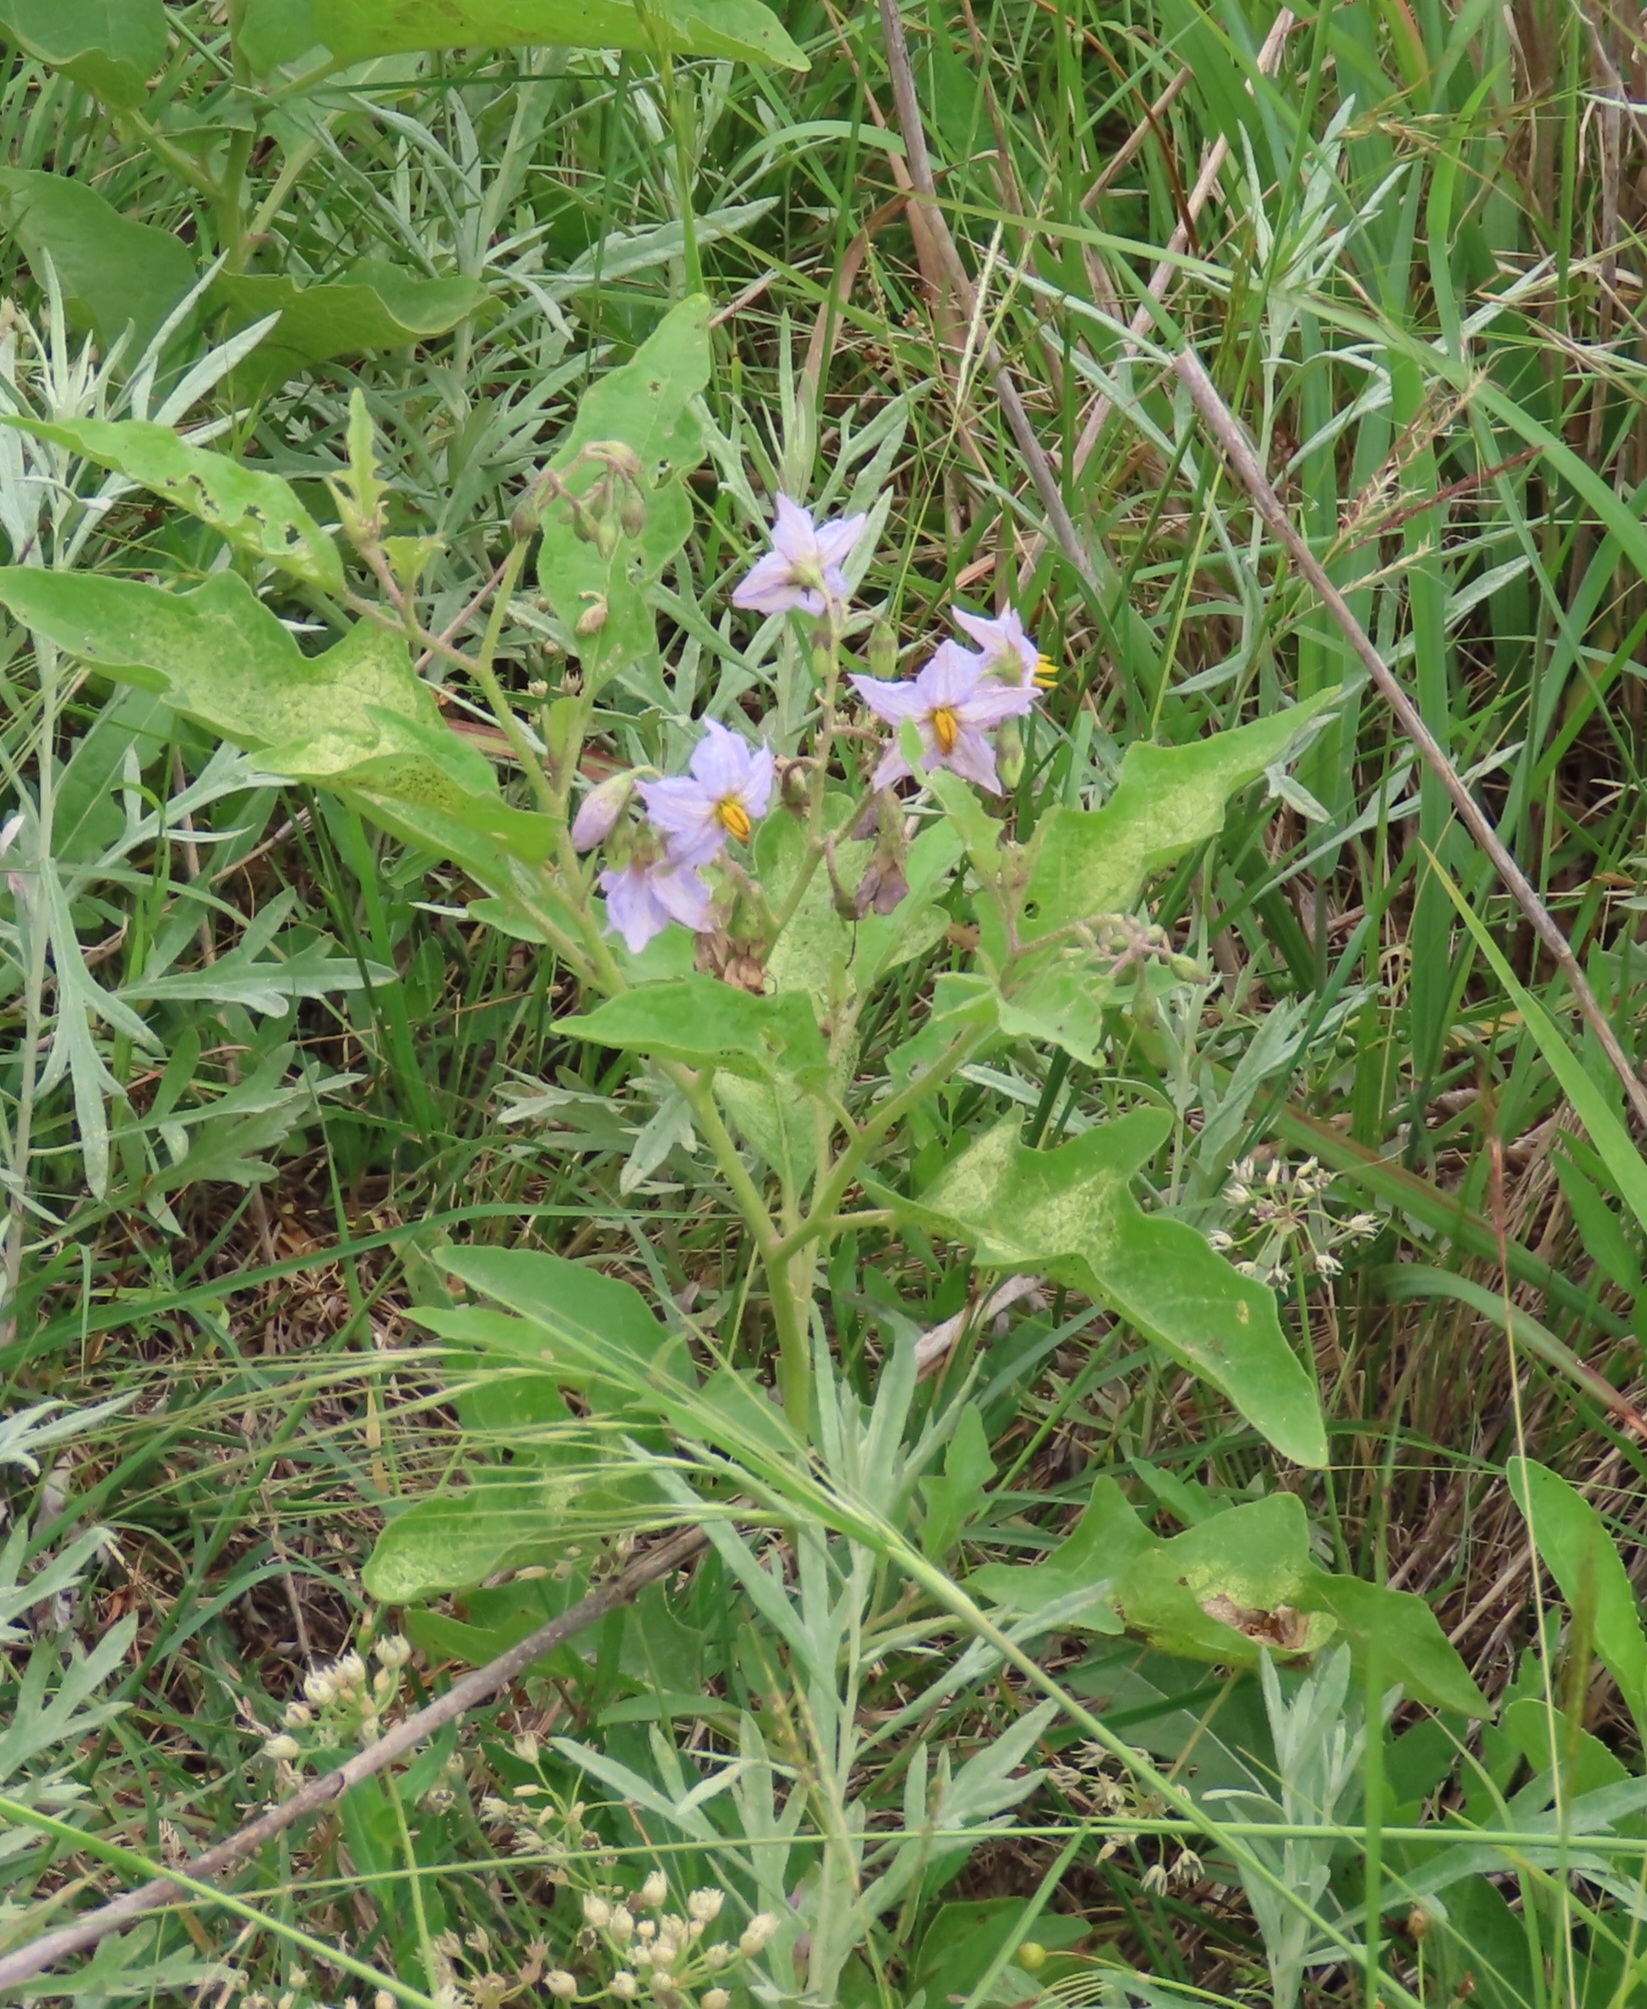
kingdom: Plantae
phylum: Tracheophyta
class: Magnoliopsida
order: Solanales
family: Solanaceae
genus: Solanum
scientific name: Solanum dimidiatum
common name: Carolina horse-nettle
